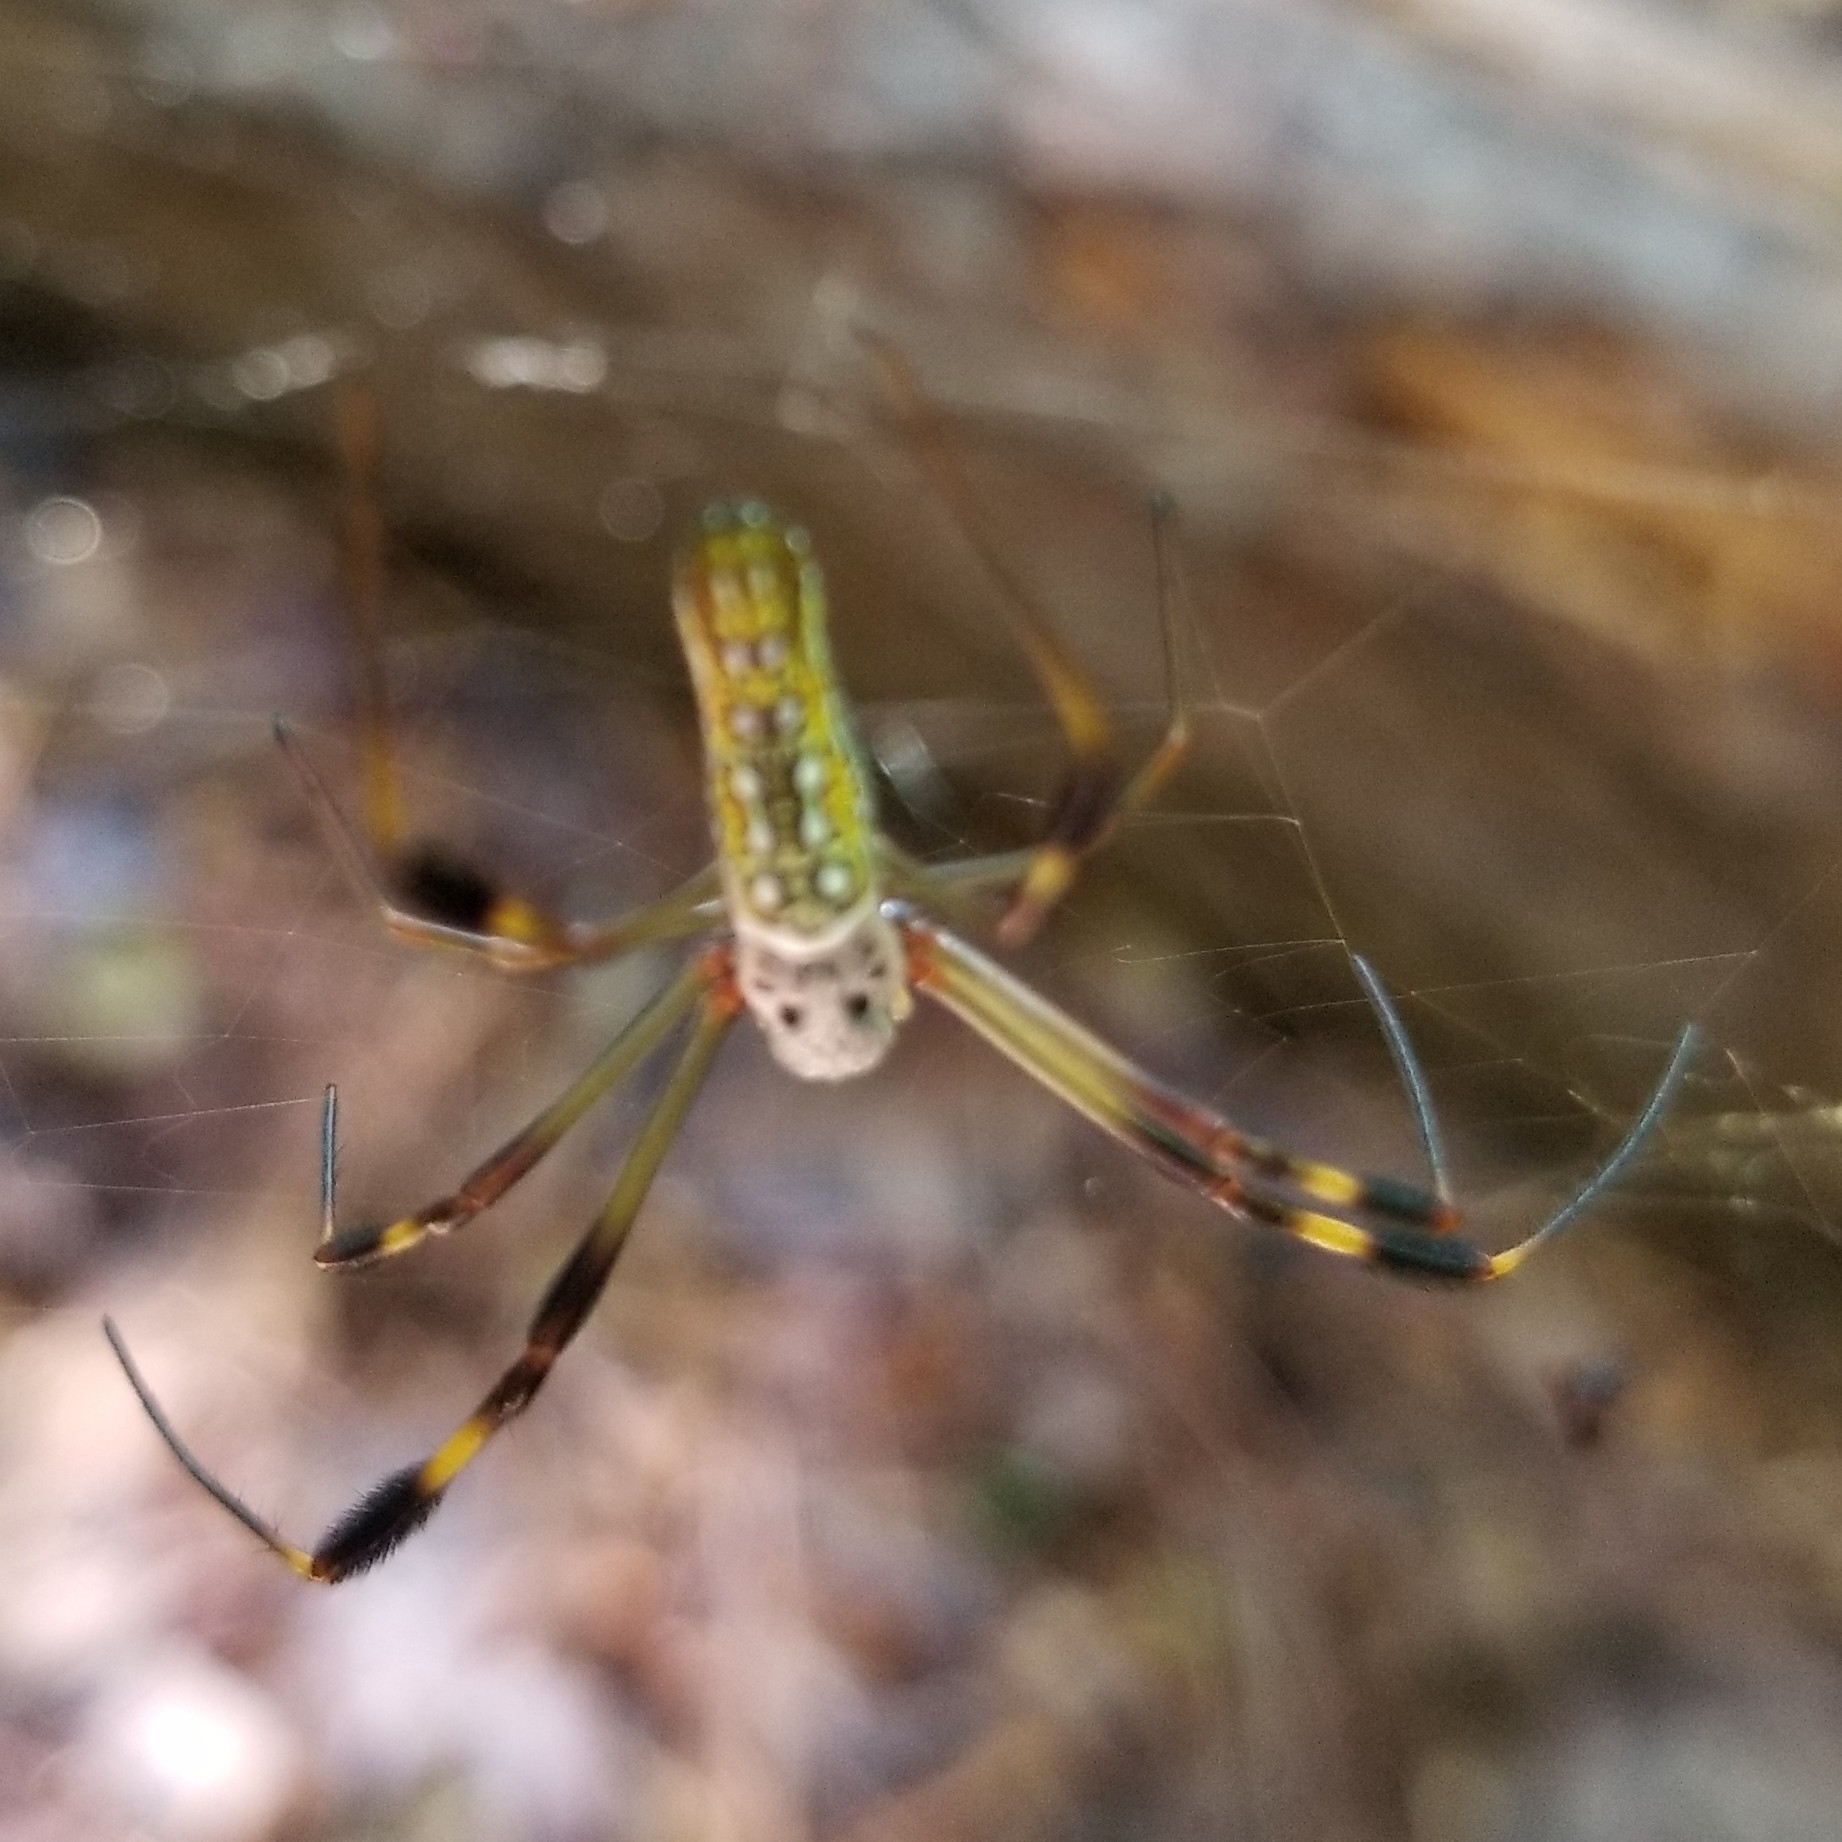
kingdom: Animalia
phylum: Arthropoda
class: Arachnida
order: Araneae
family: Araneidae
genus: Trichonephila
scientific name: Trichonephila clavipes
